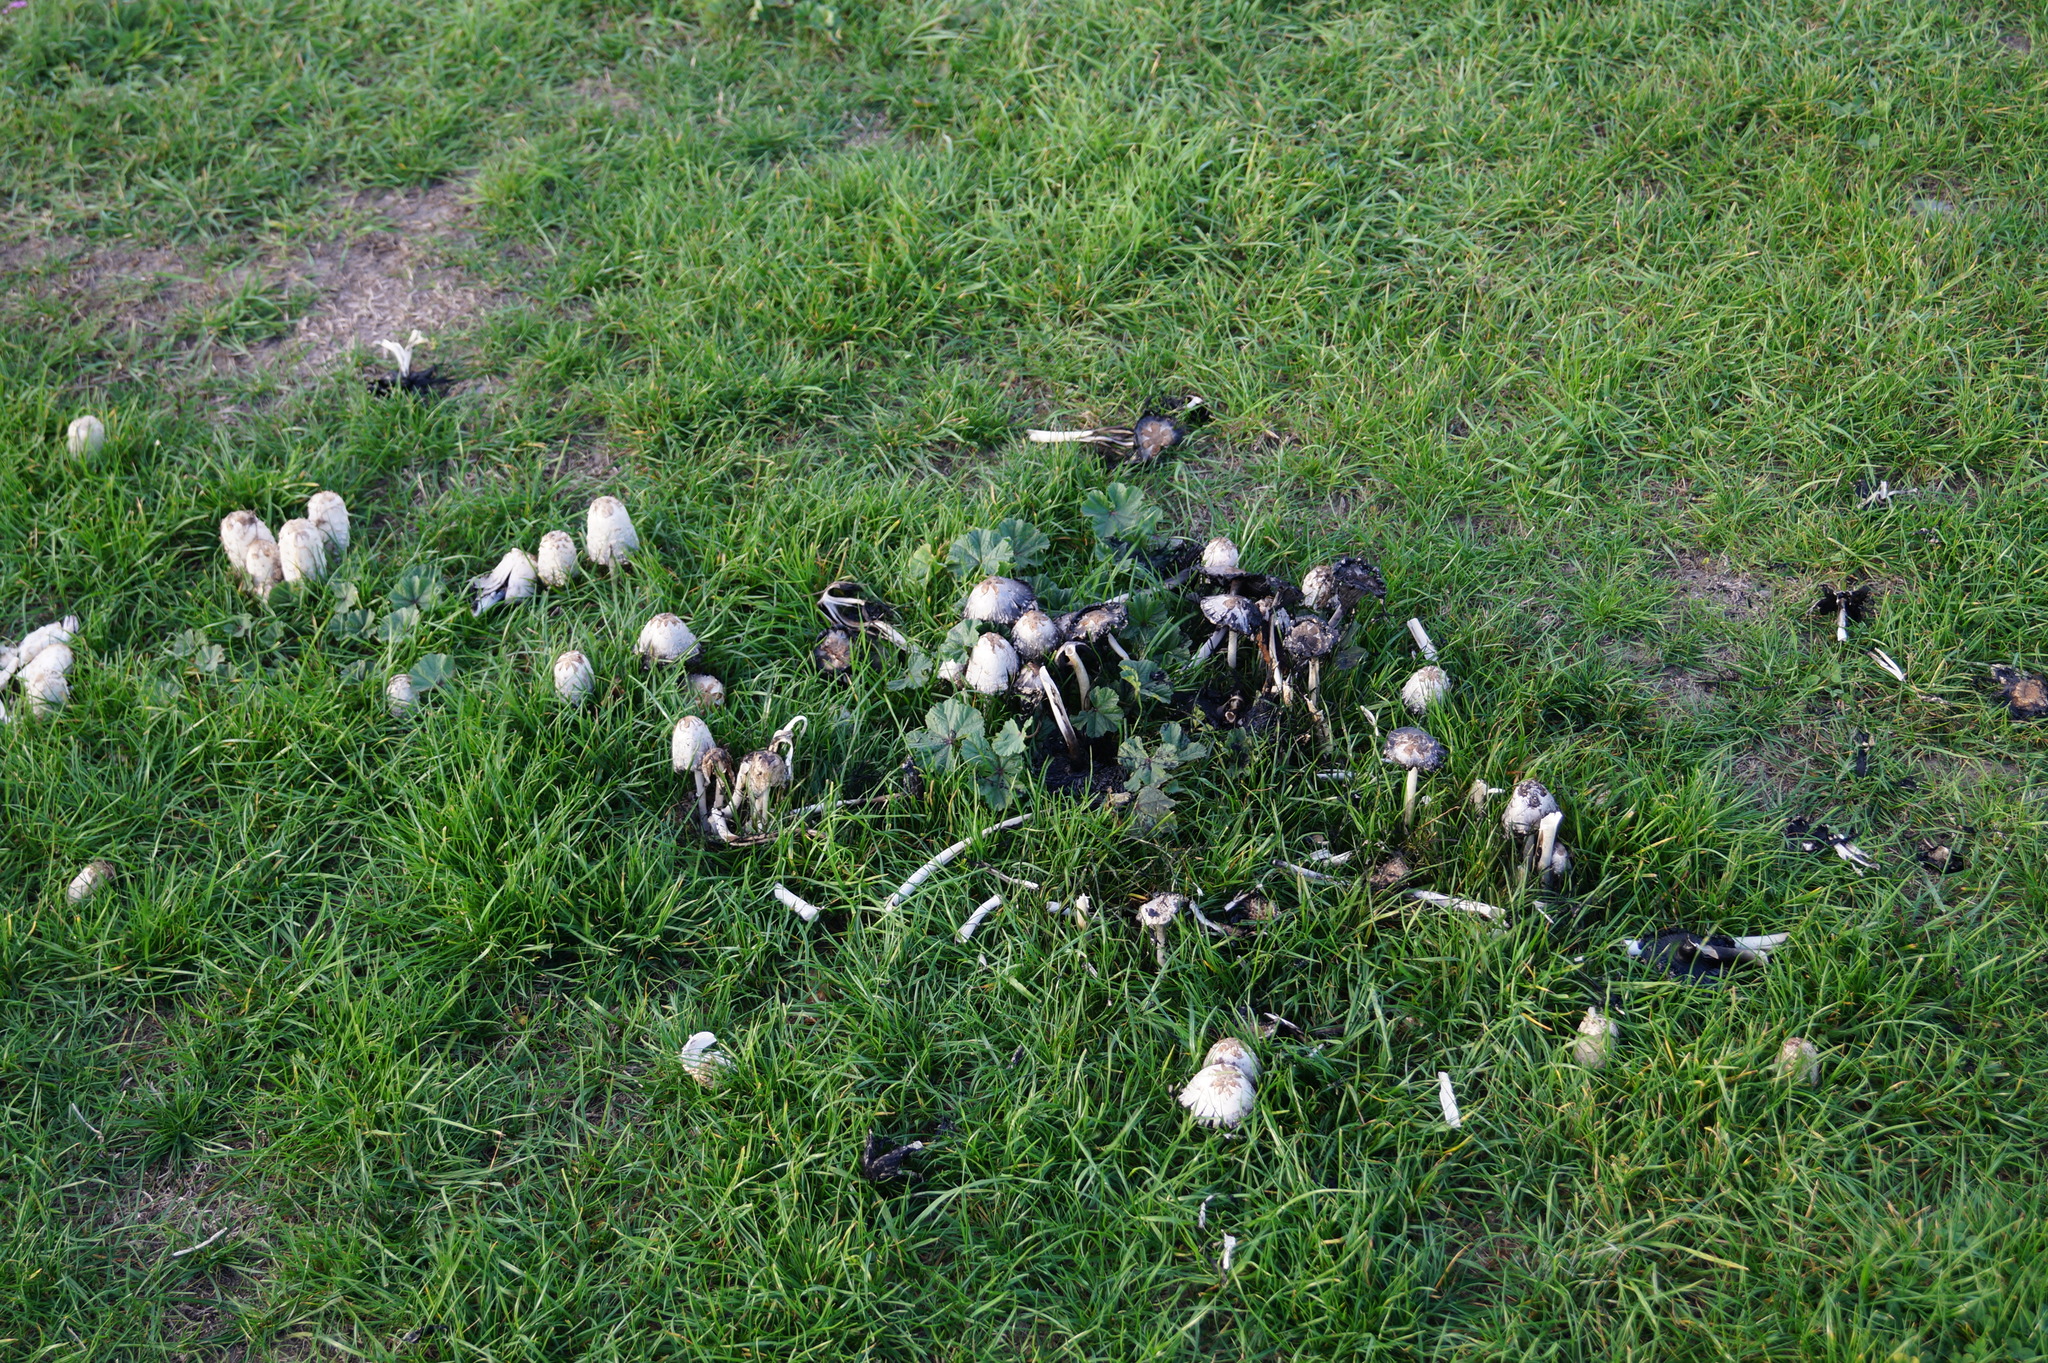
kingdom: Fungi
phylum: Basidiomycota
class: Agaricomycetes
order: Agaricales
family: Agaricaceae
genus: Coprinus
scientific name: Coprinus comatus
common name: Lawyer's wig
